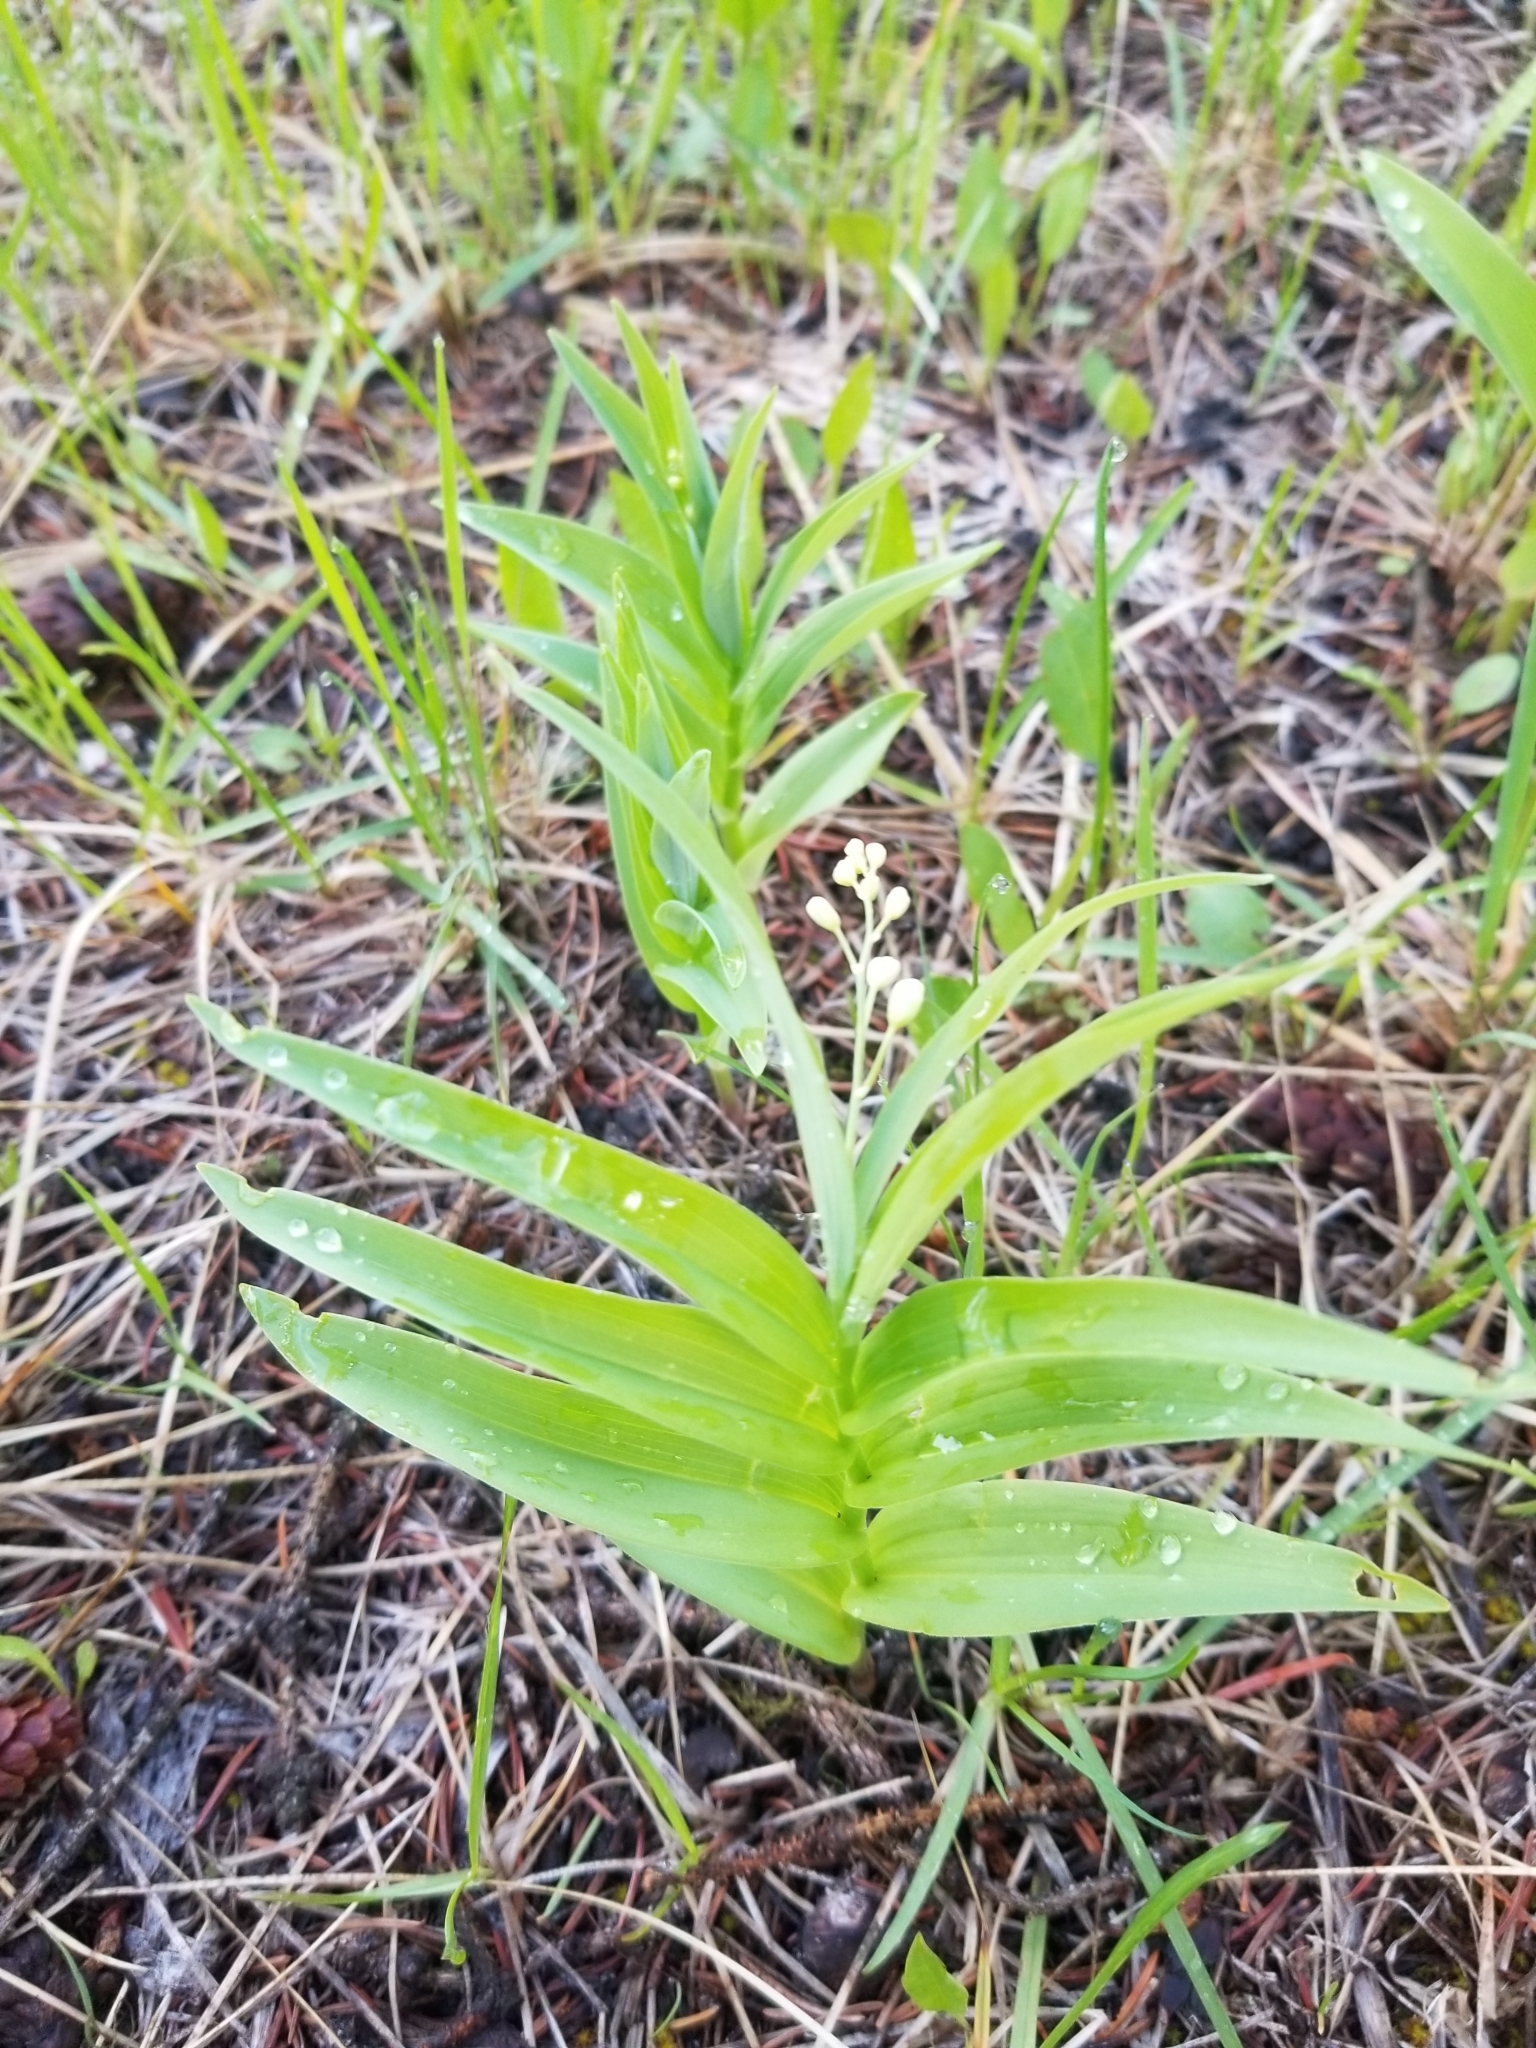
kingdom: Plantae
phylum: Tracheophyta
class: Liliopsida
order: Asparagales
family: Asparagaceae
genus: Maianthemum
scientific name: Maianthemum stellatum
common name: Little false solomon's seal
